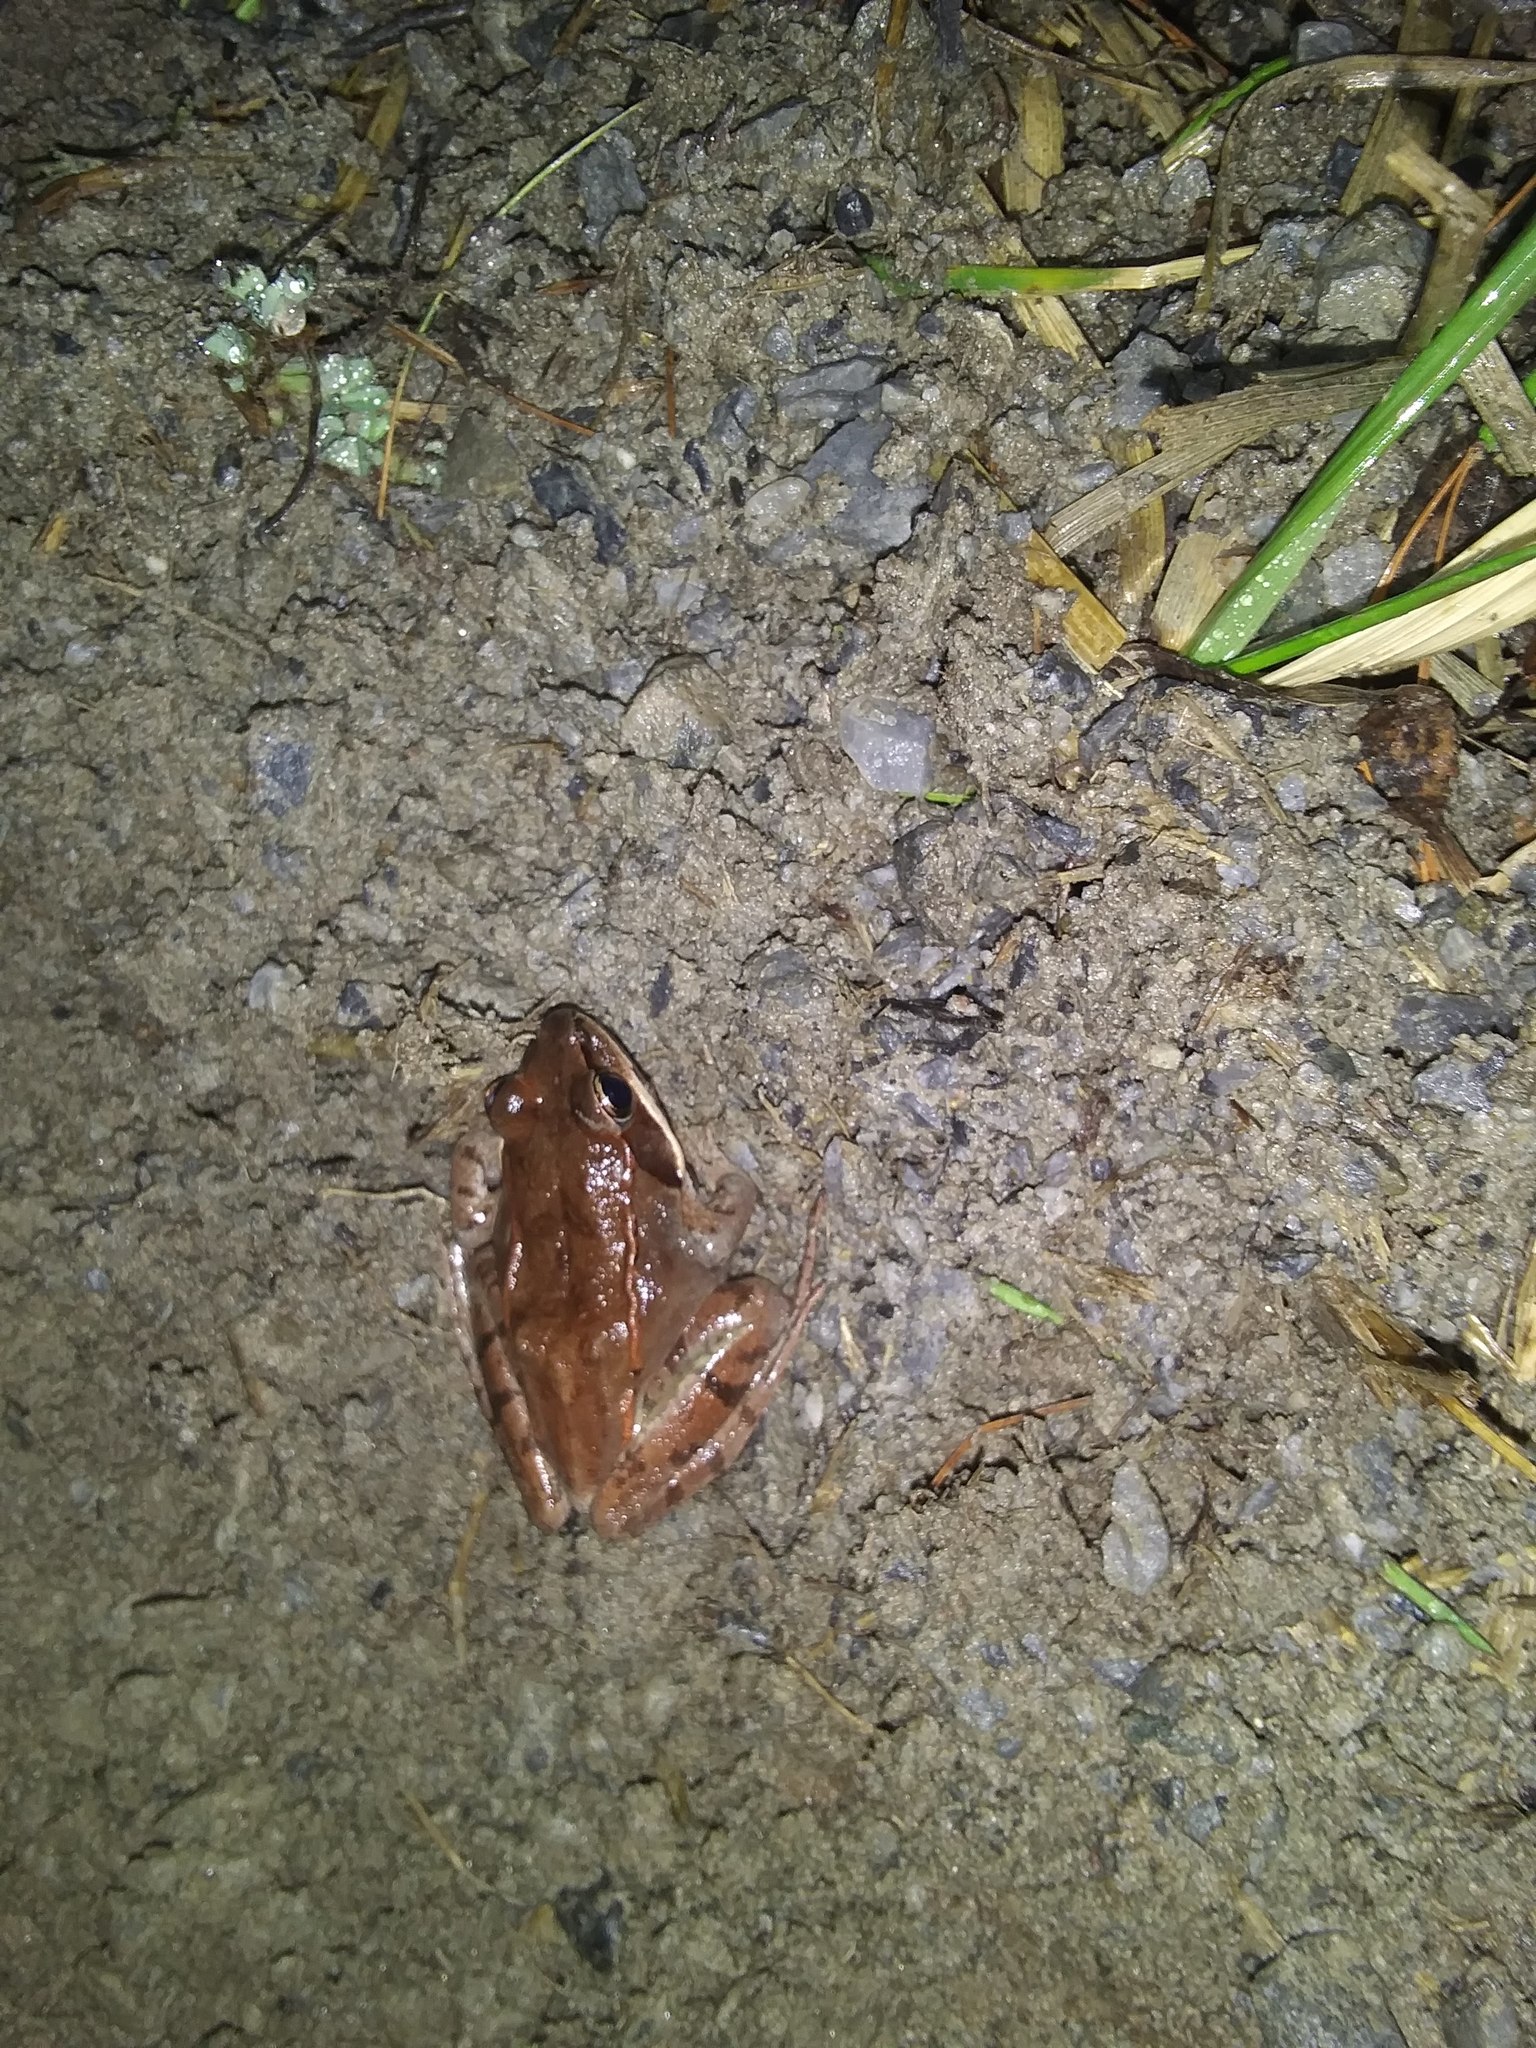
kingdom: Animalia
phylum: Chordata
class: Amphibia
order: Anura
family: Ranidae
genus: Lithobates
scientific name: Lithobates sylvaticus
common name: Wood frog
